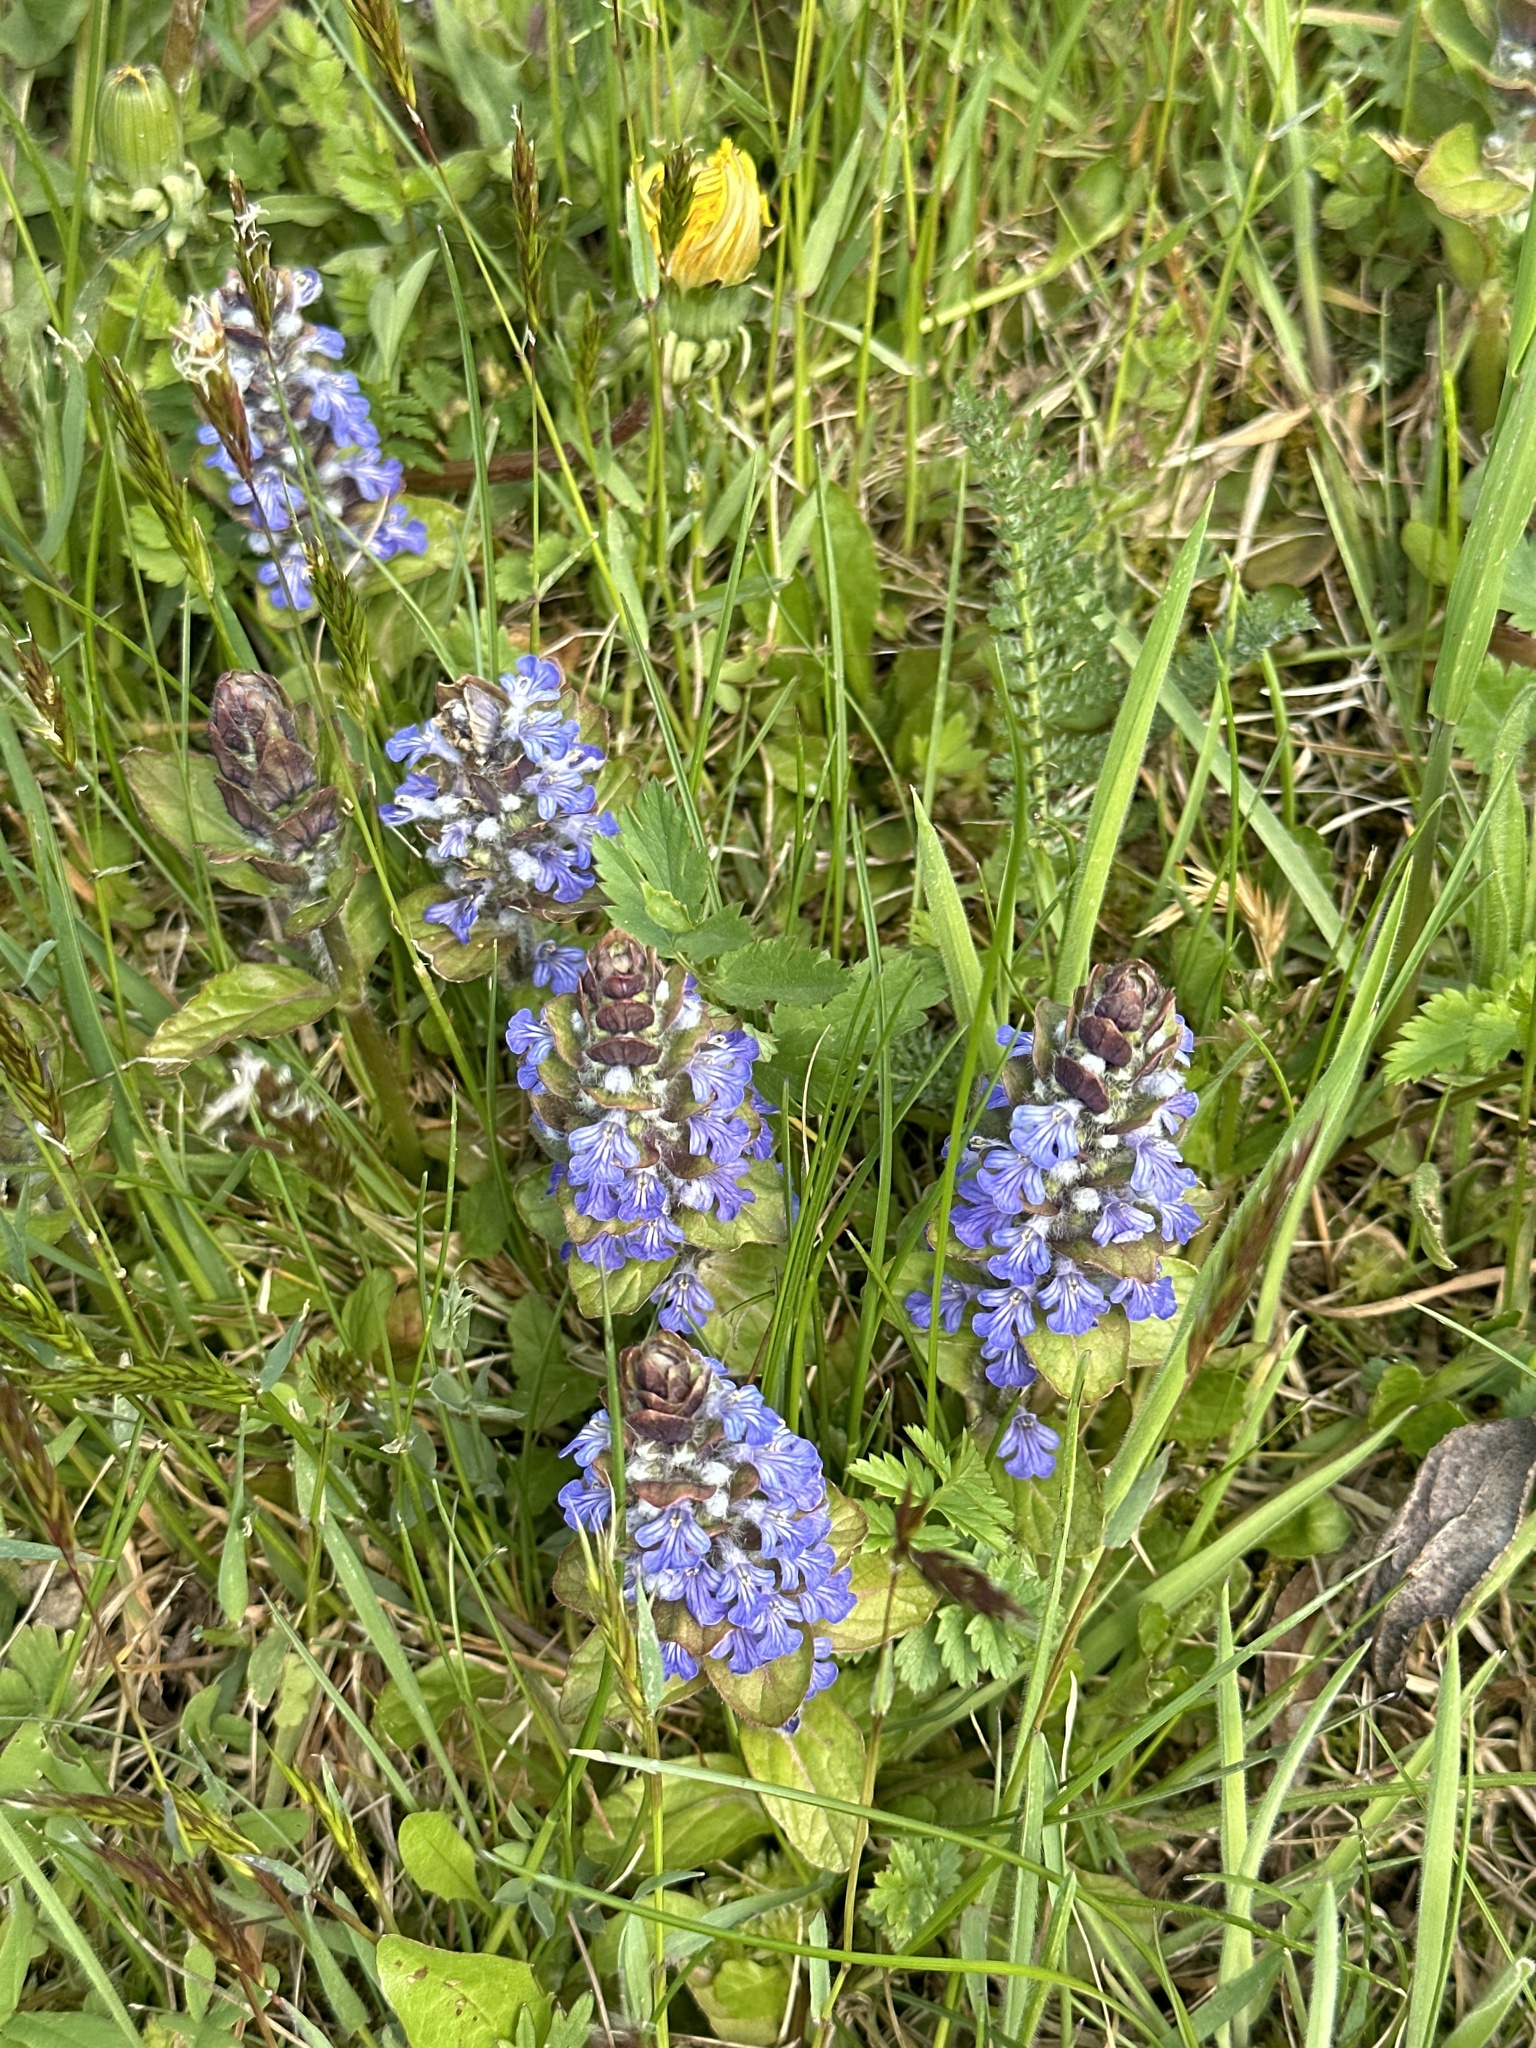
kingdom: Plantae
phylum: Tracheophyta
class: Magnoliopsida
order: Lamiales
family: Lamiaceae
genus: Ajuga
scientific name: Ajuga reptans
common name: Bugle
